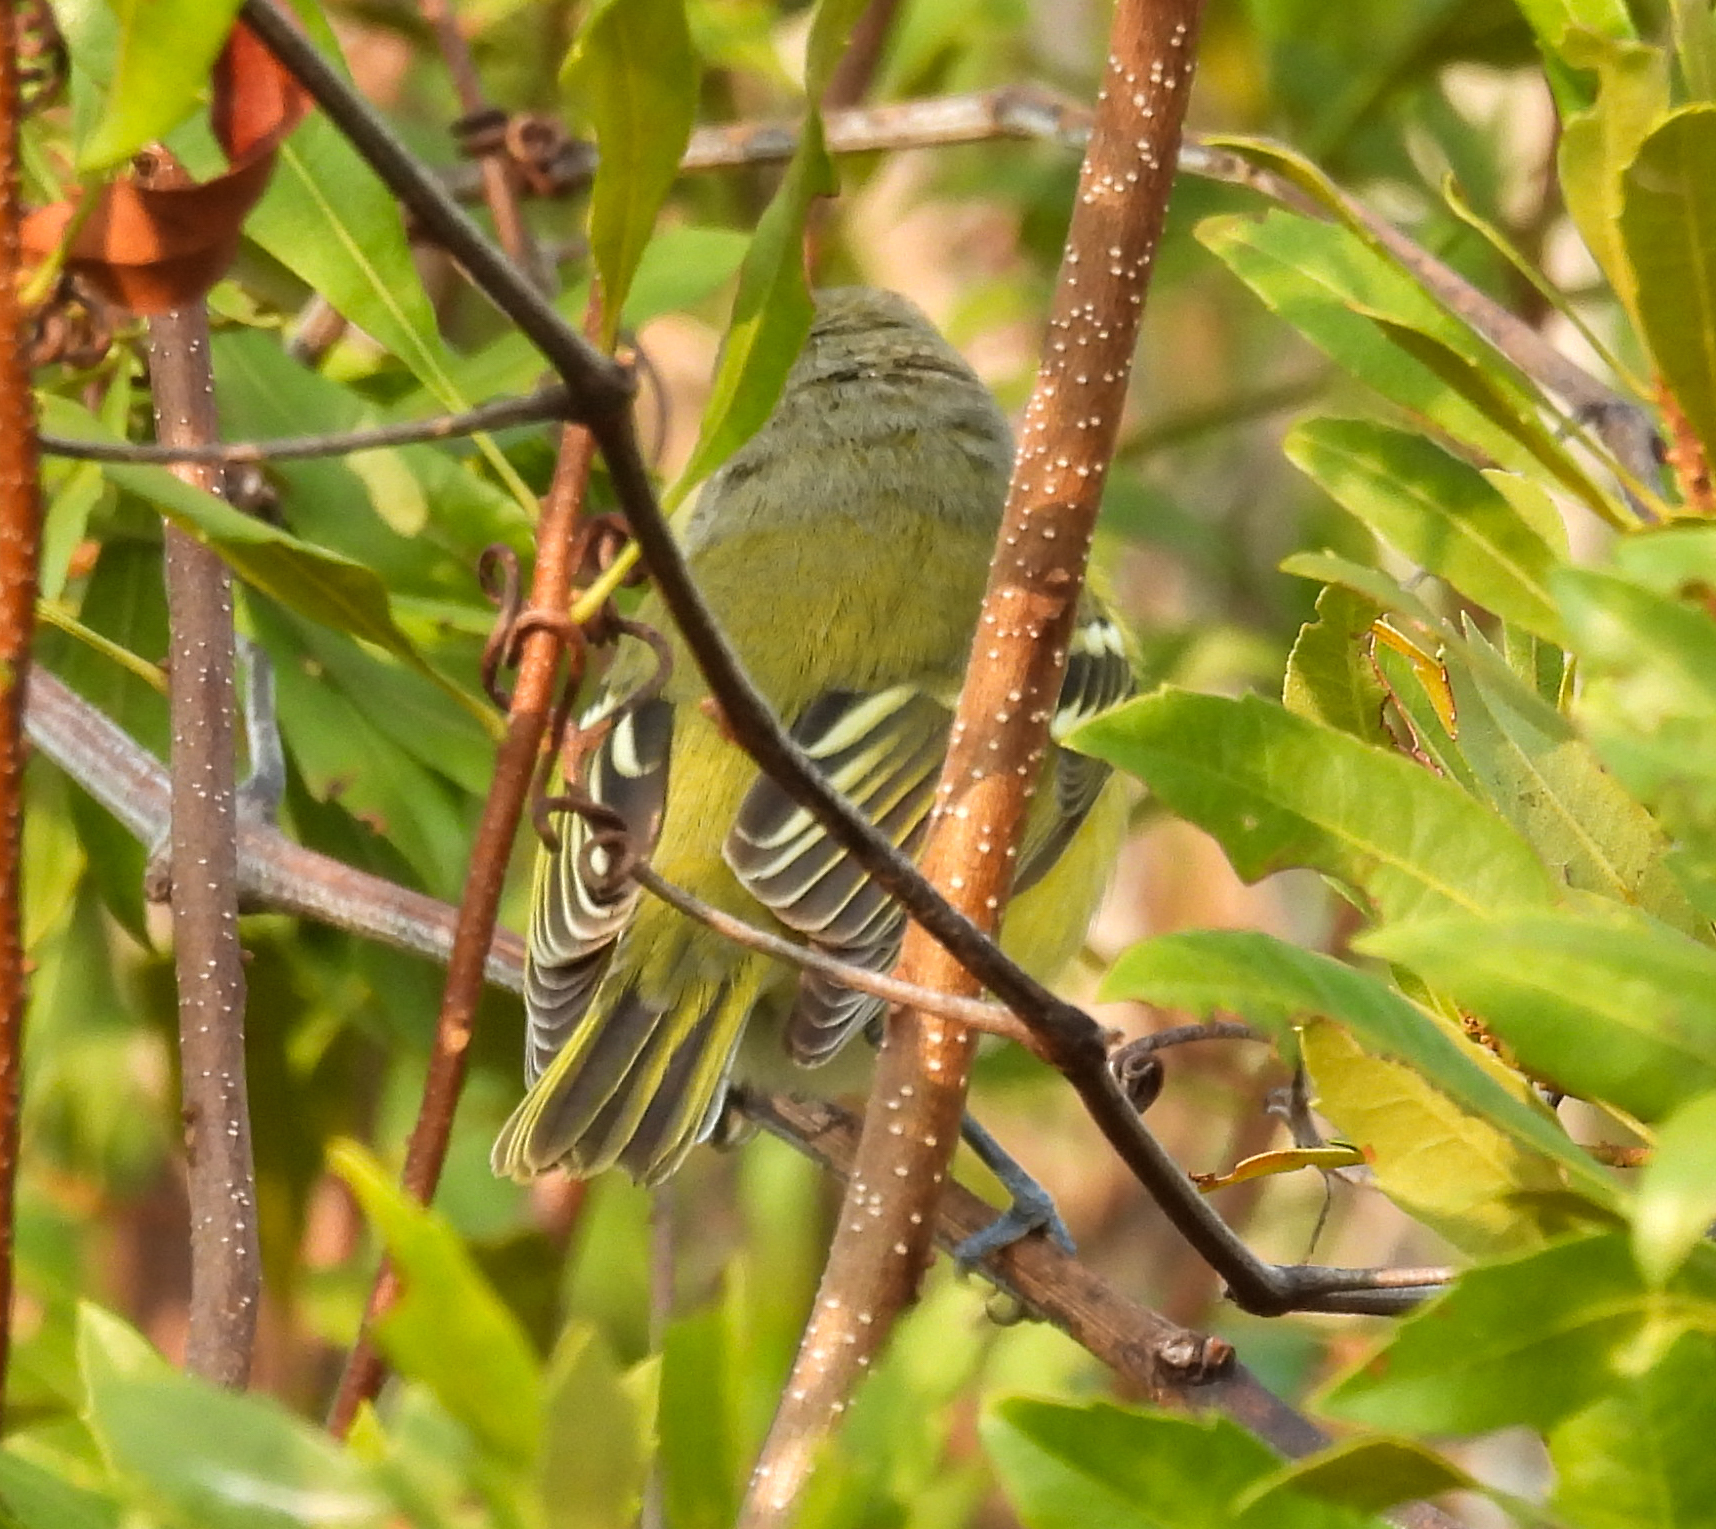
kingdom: Animalia
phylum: Chordata
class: Aves
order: Passeriformes
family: Vireonidae
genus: Vireo
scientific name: Vireo griseus
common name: White-eyed vireo
